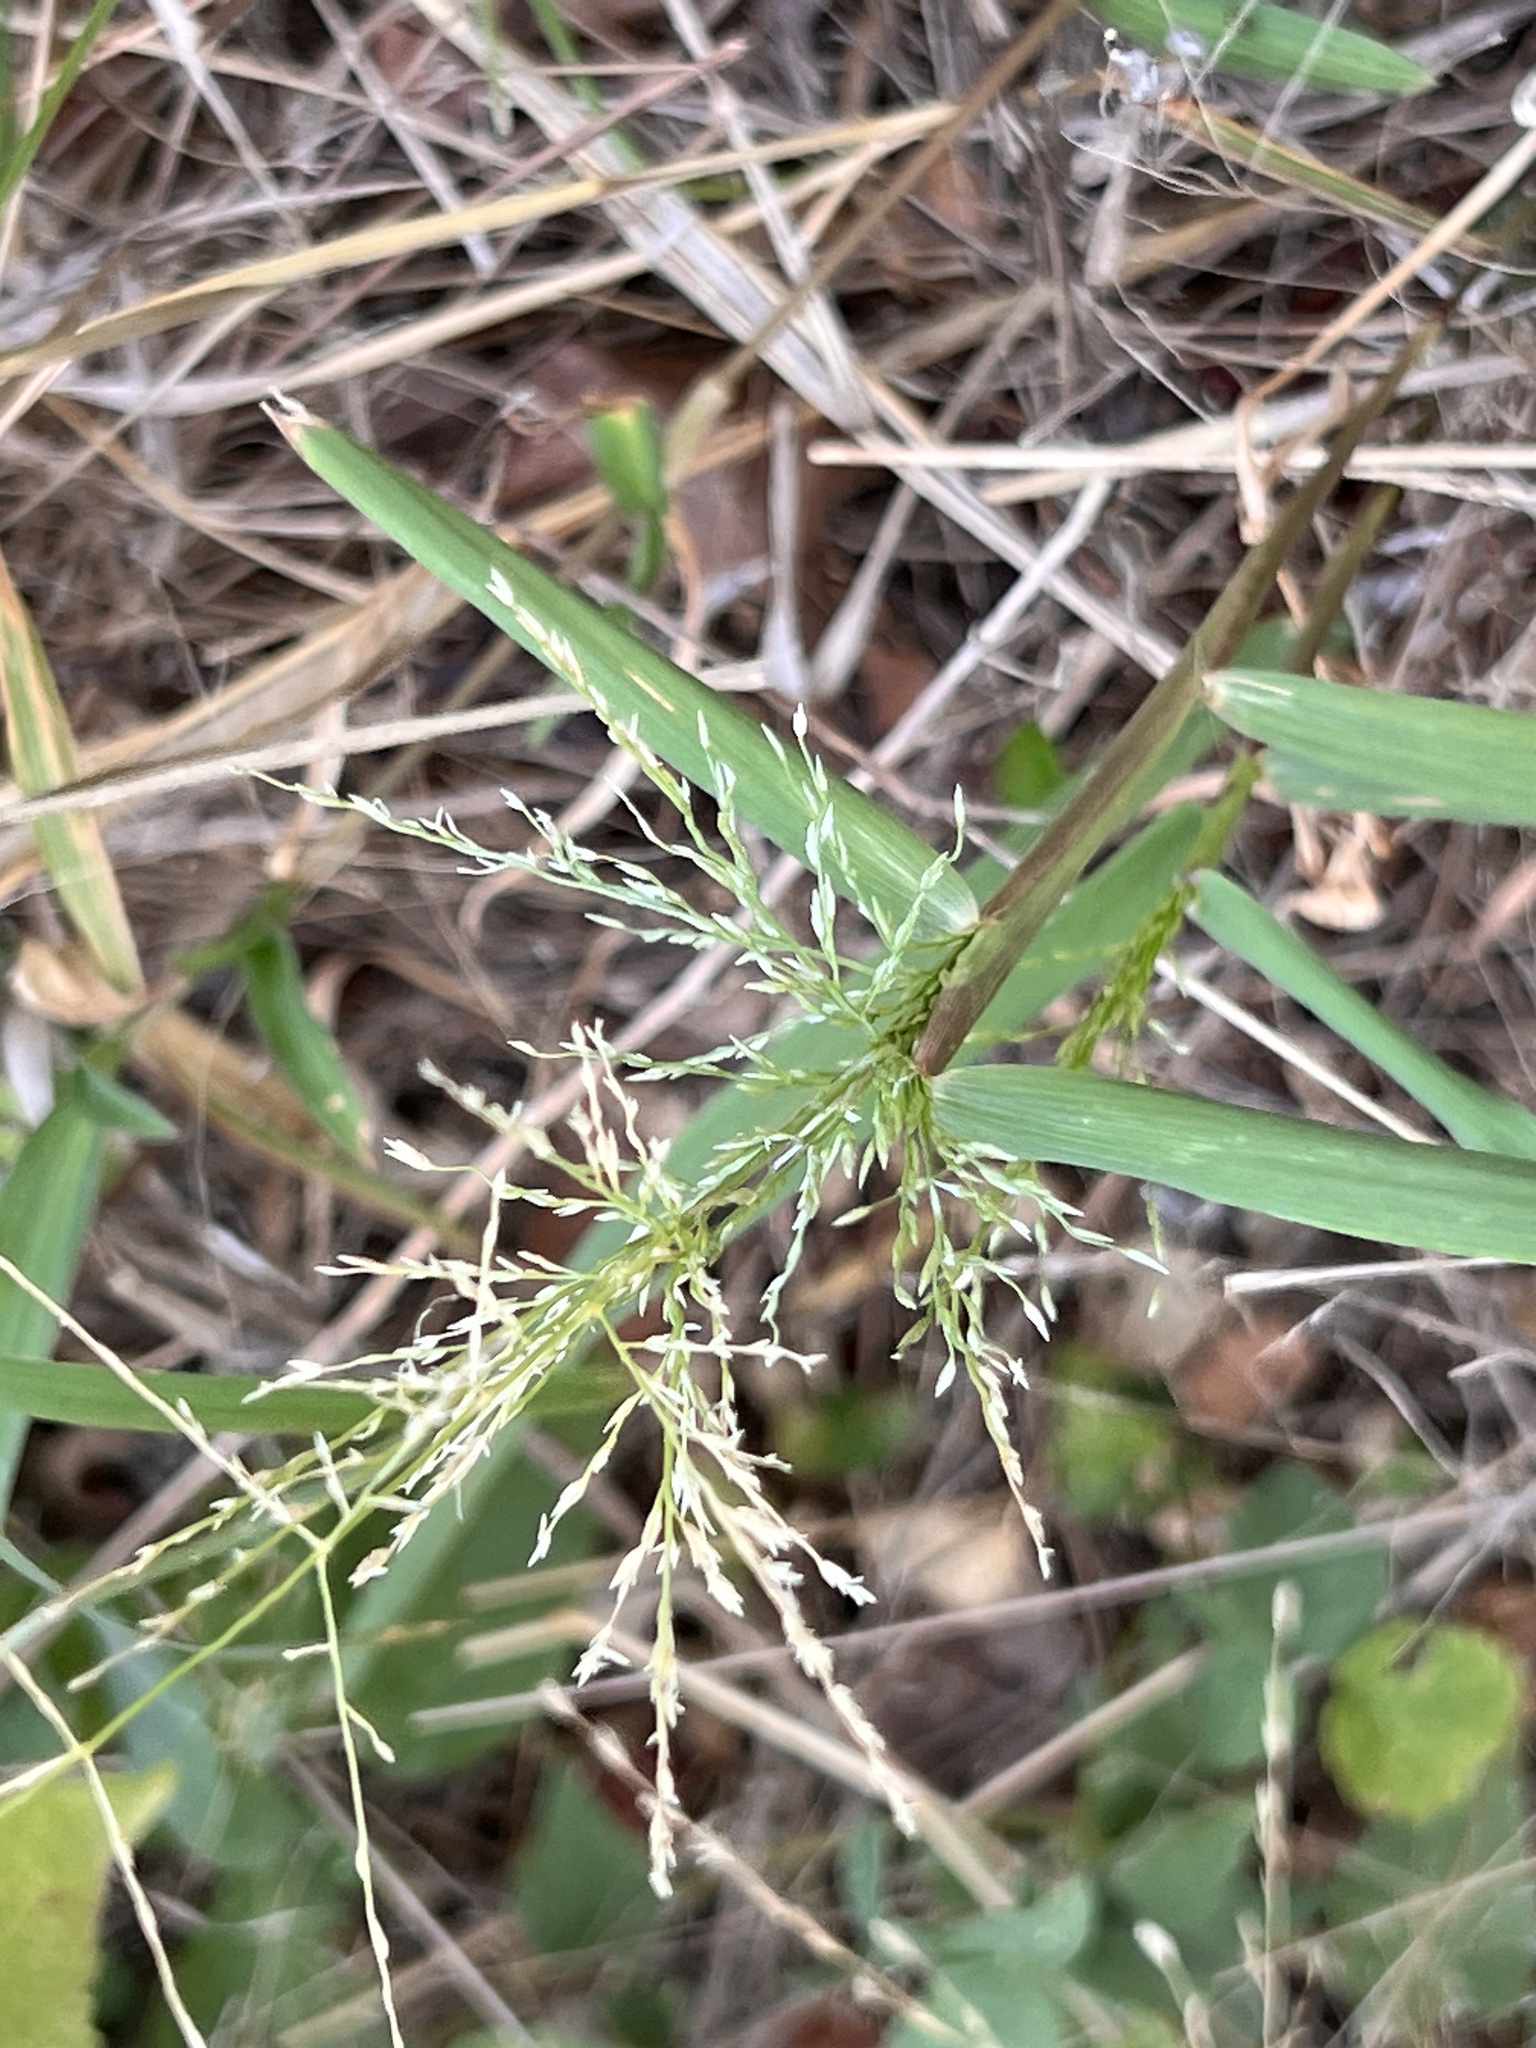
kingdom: Plantae
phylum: Tracheophyta
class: Liliopsida
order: Poales
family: Poaceae
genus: Eragrostis
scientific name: Eragrostis curtipedicellata
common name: Gummy love grass
